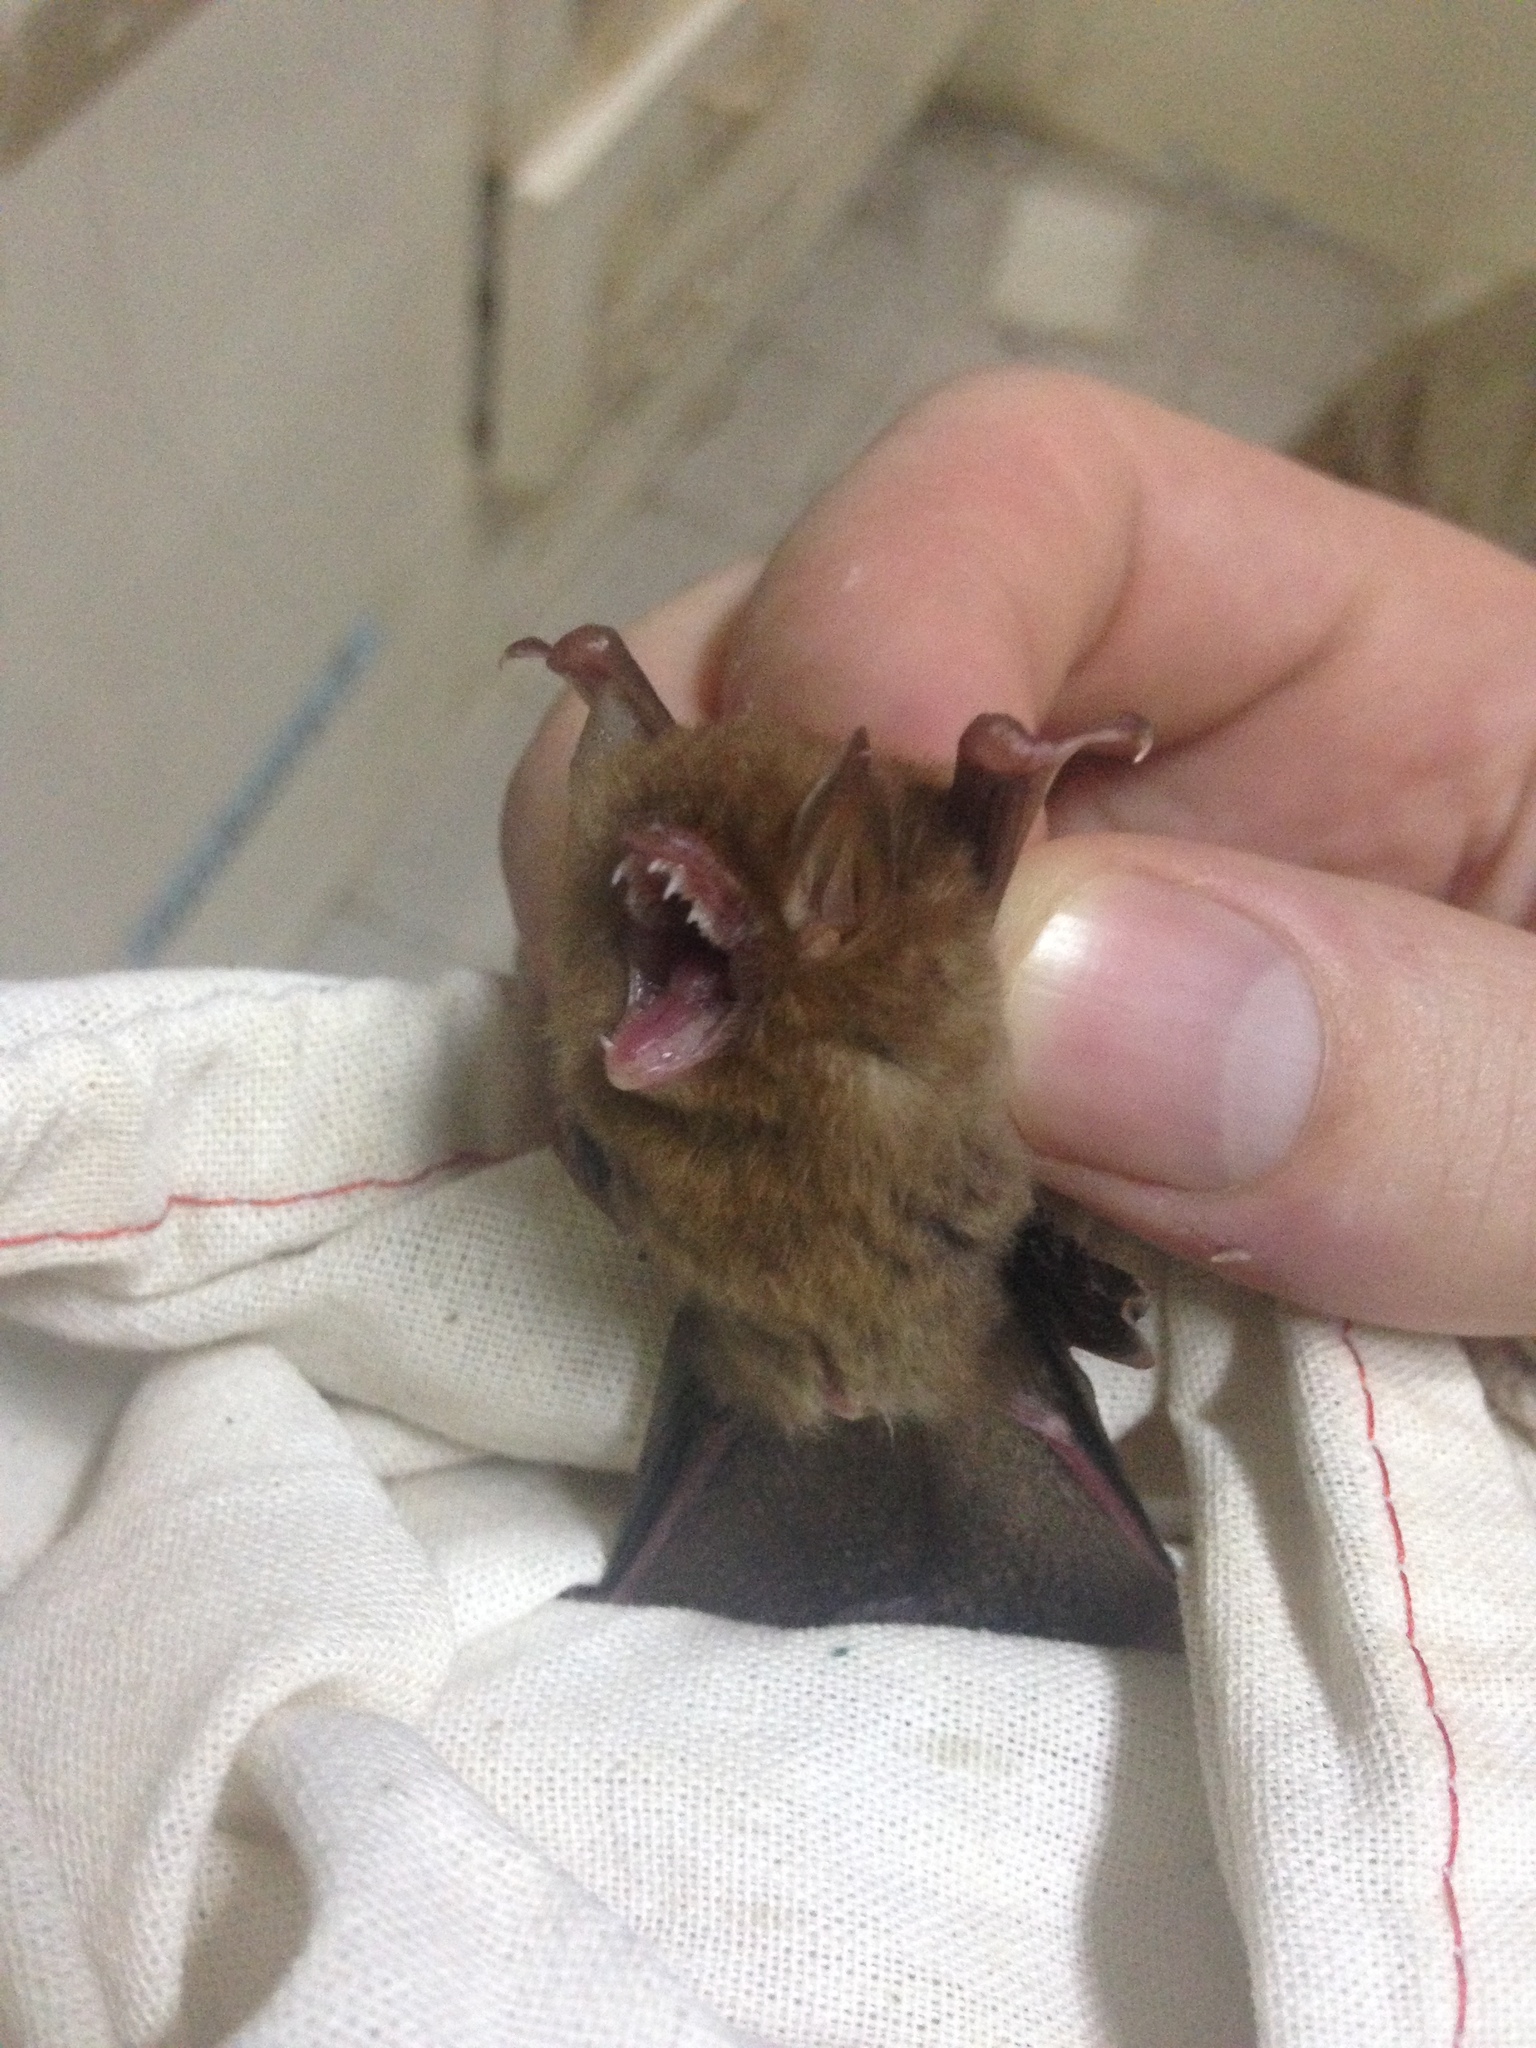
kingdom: Animalia
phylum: Chordata
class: Mammalia
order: Chiroptera
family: Vespertilionidae
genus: Kerivoula
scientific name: Kerivoula intermedia
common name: Small woolly bat
